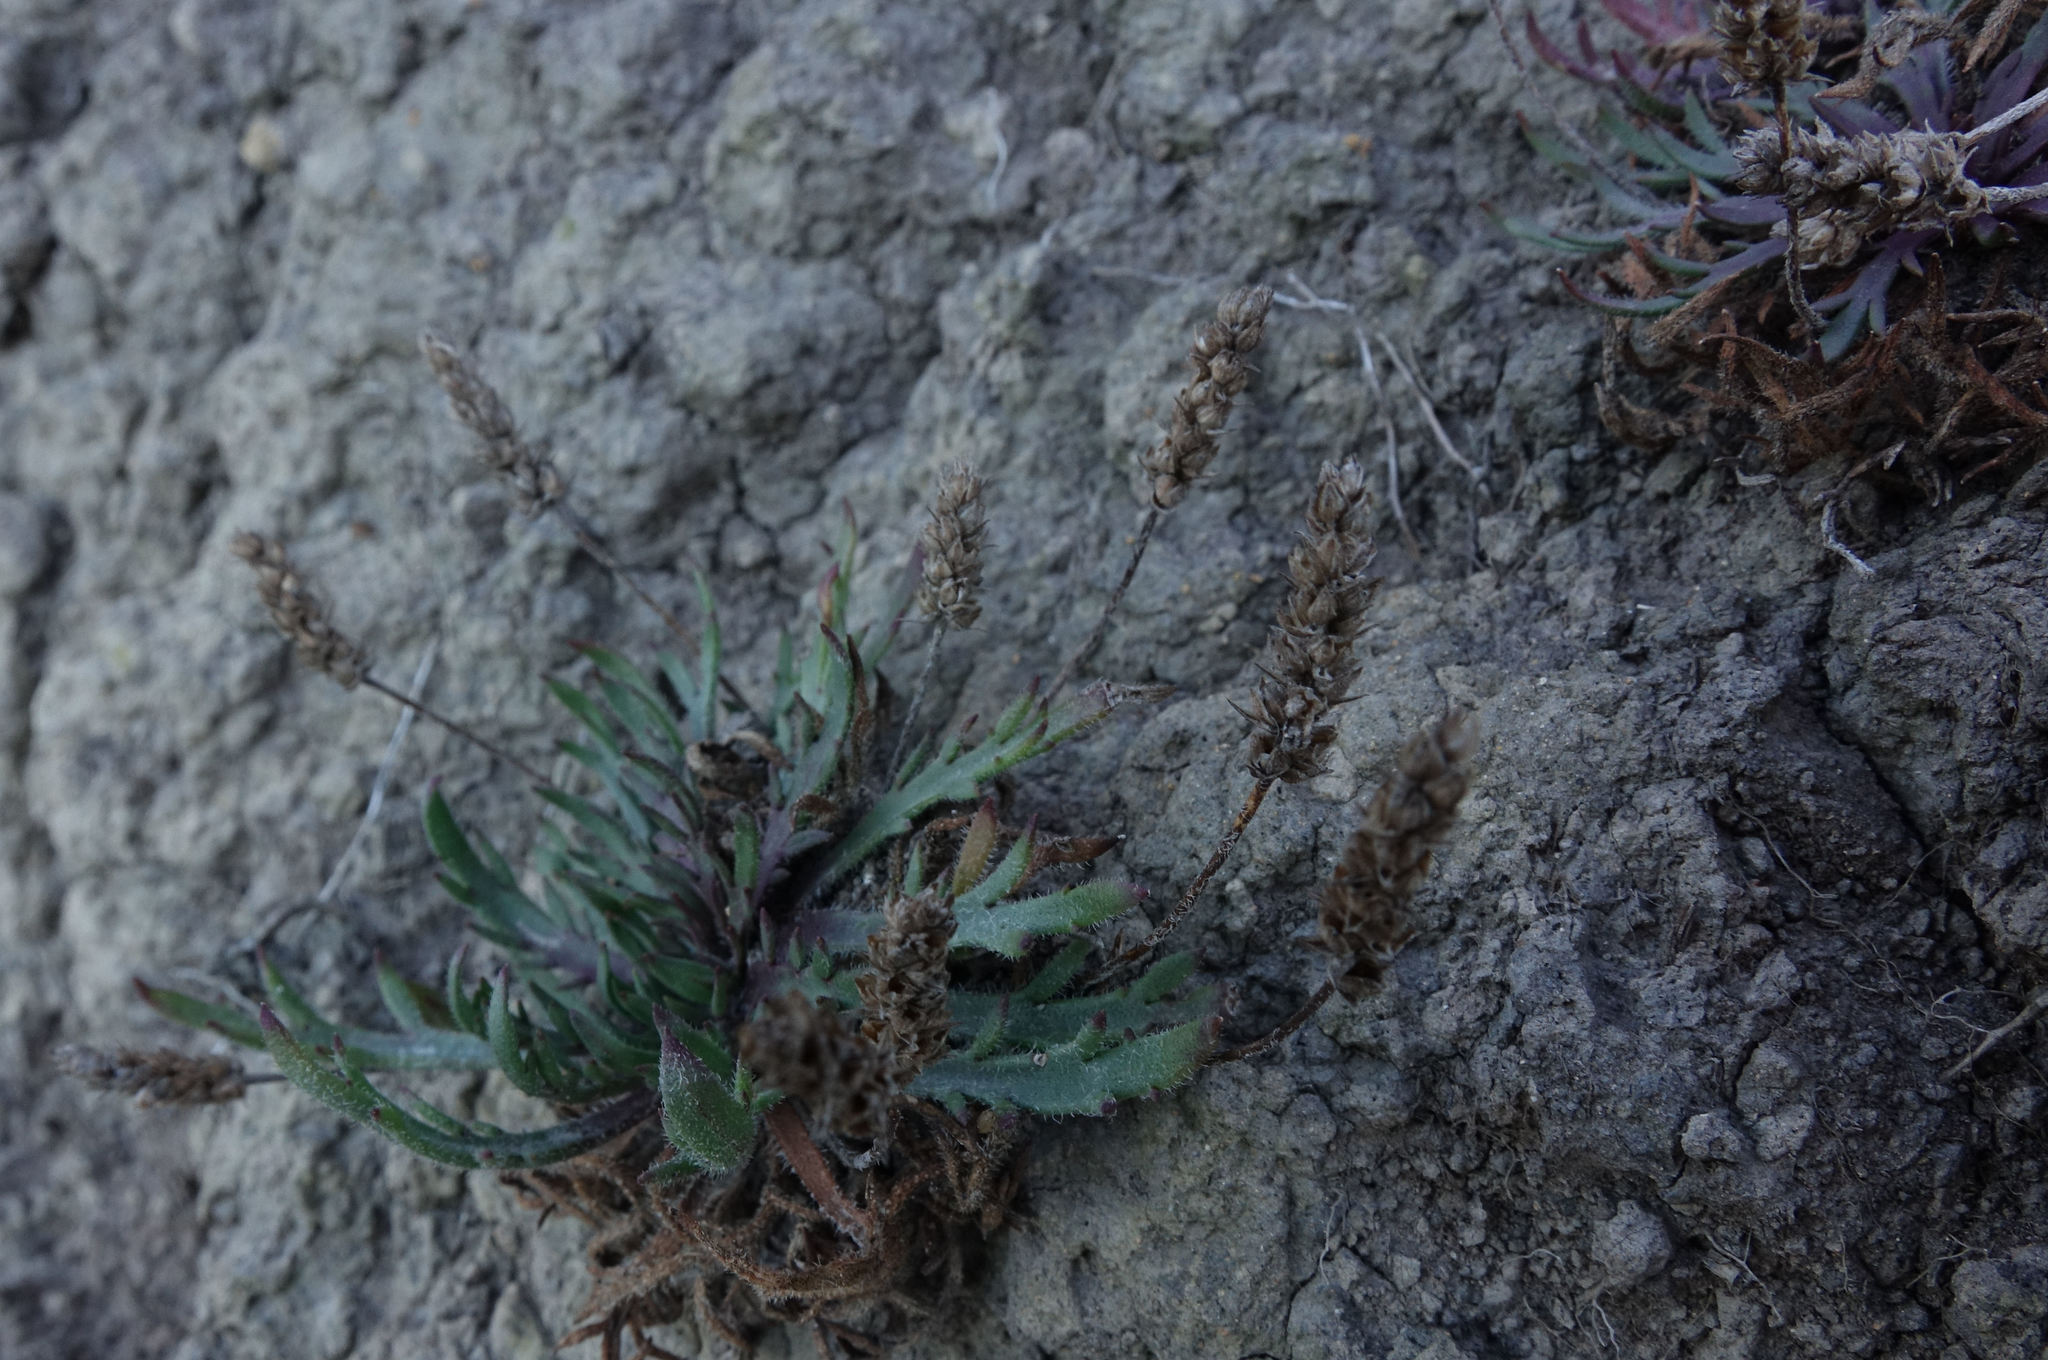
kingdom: Plantae
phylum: Tracheophyta
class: Magnoliopsida
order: Lamiales
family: Plantaginaceae
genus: Plantago
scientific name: Plantago coronopus
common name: Buck's-horn plantain
